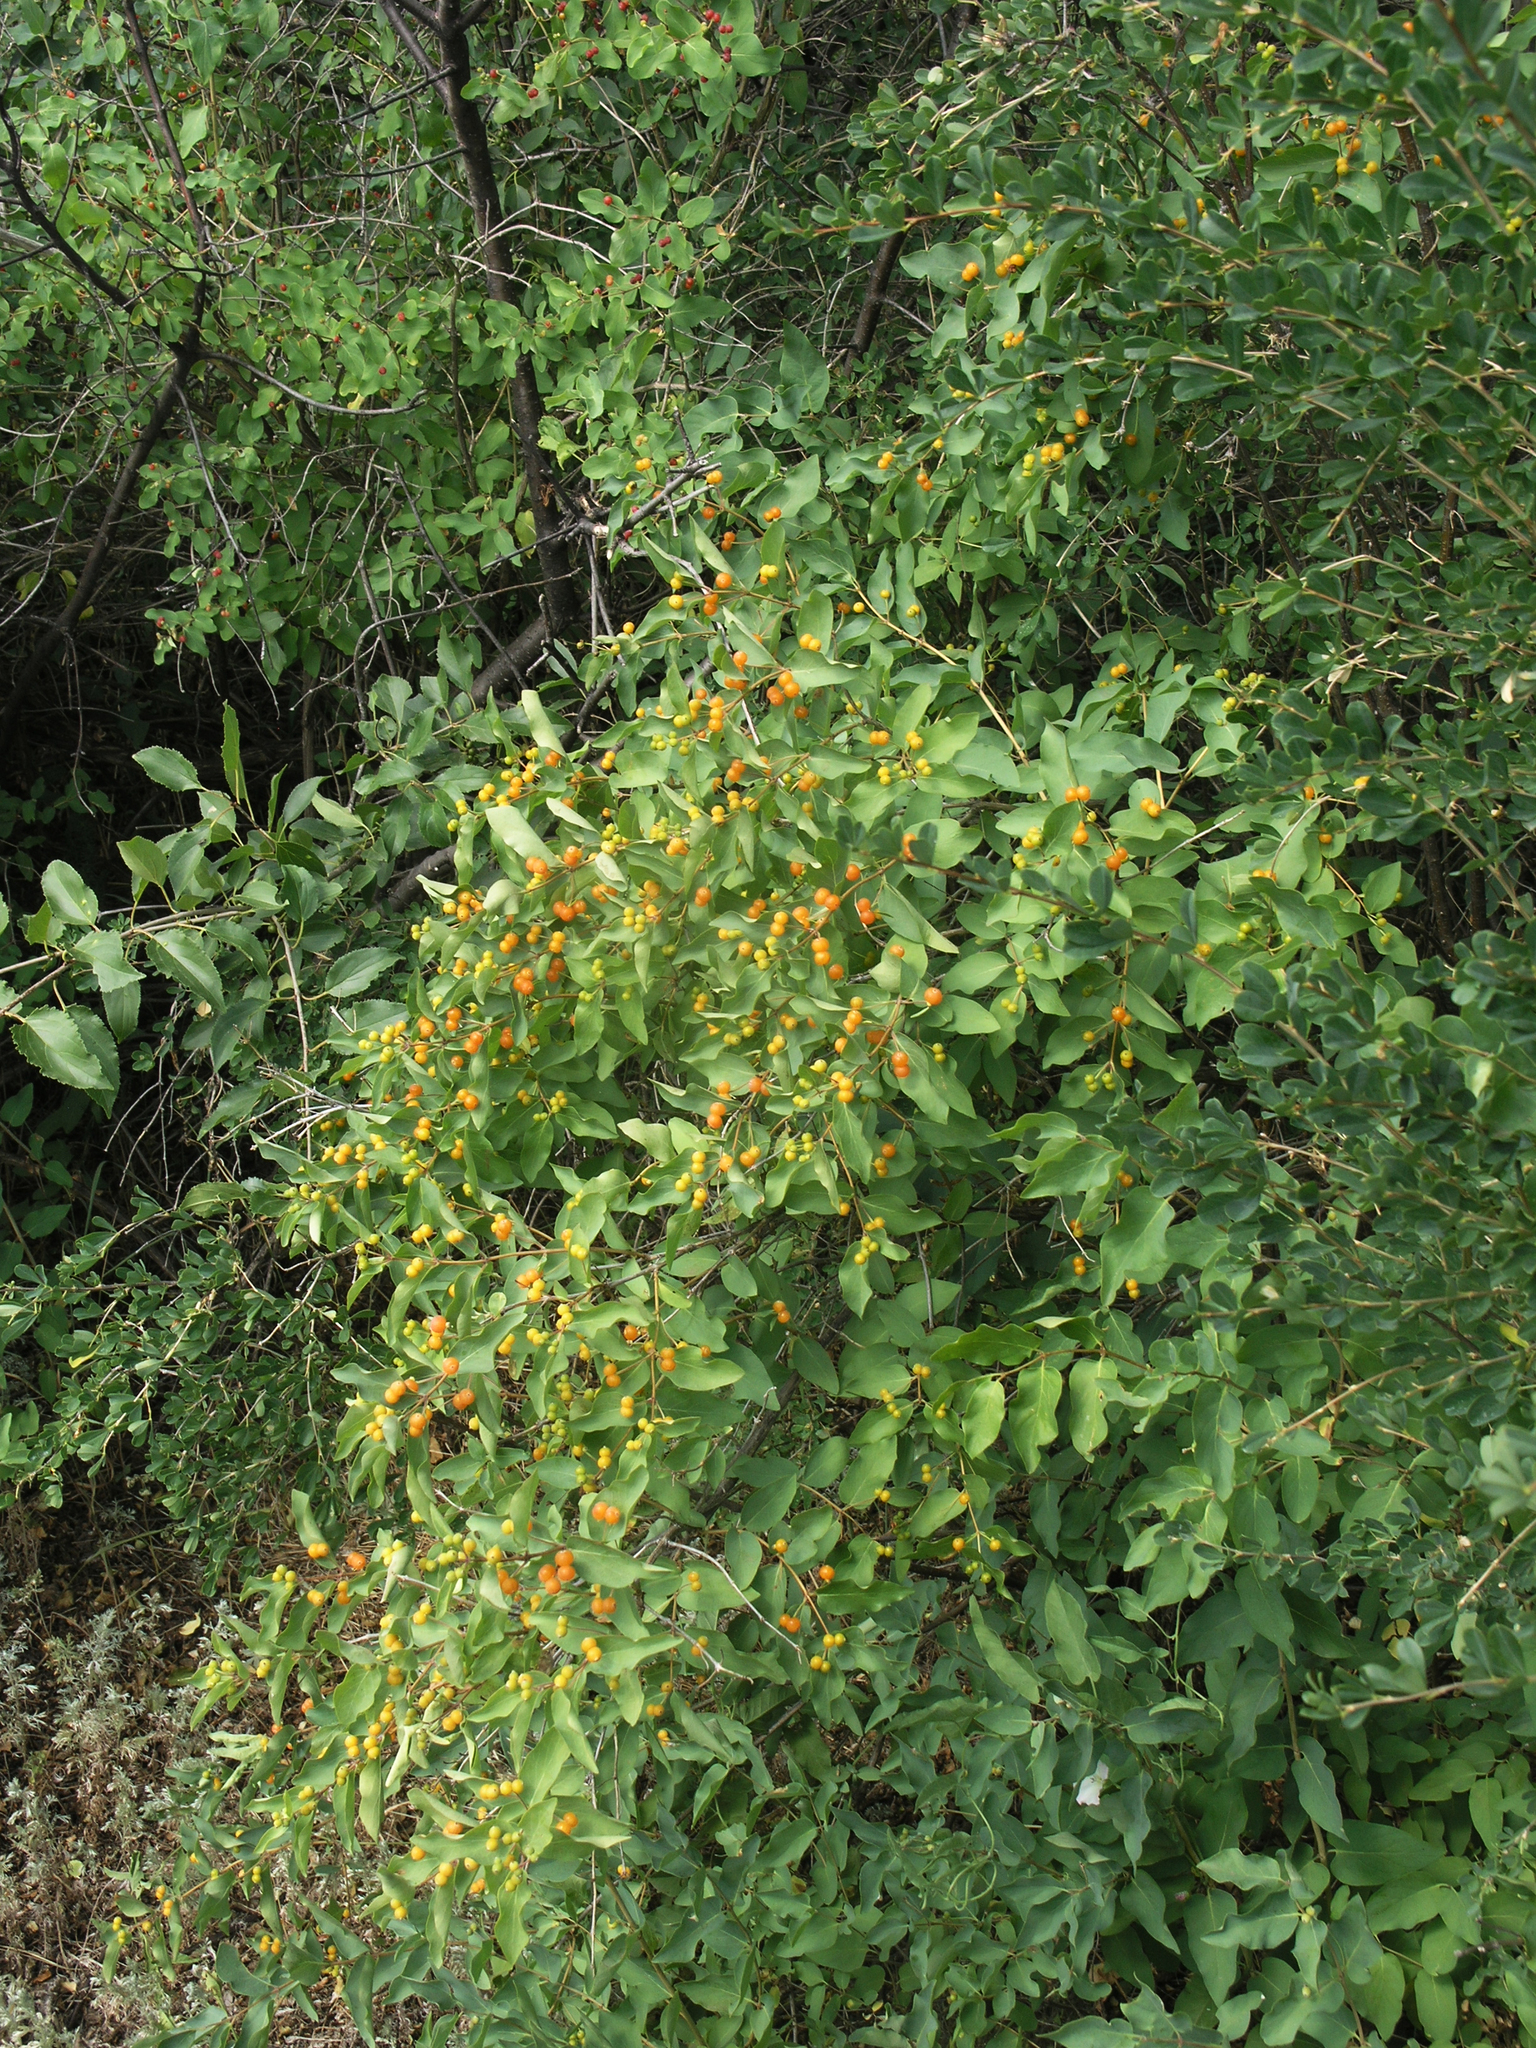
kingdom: Plantae
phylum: Tracheophyta
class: Magnoliopsida
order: Dipsacales
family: Caprifoliaceae
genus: Lonicera
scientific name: Lonicera tatarica
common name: Tatarian honeysuckle
